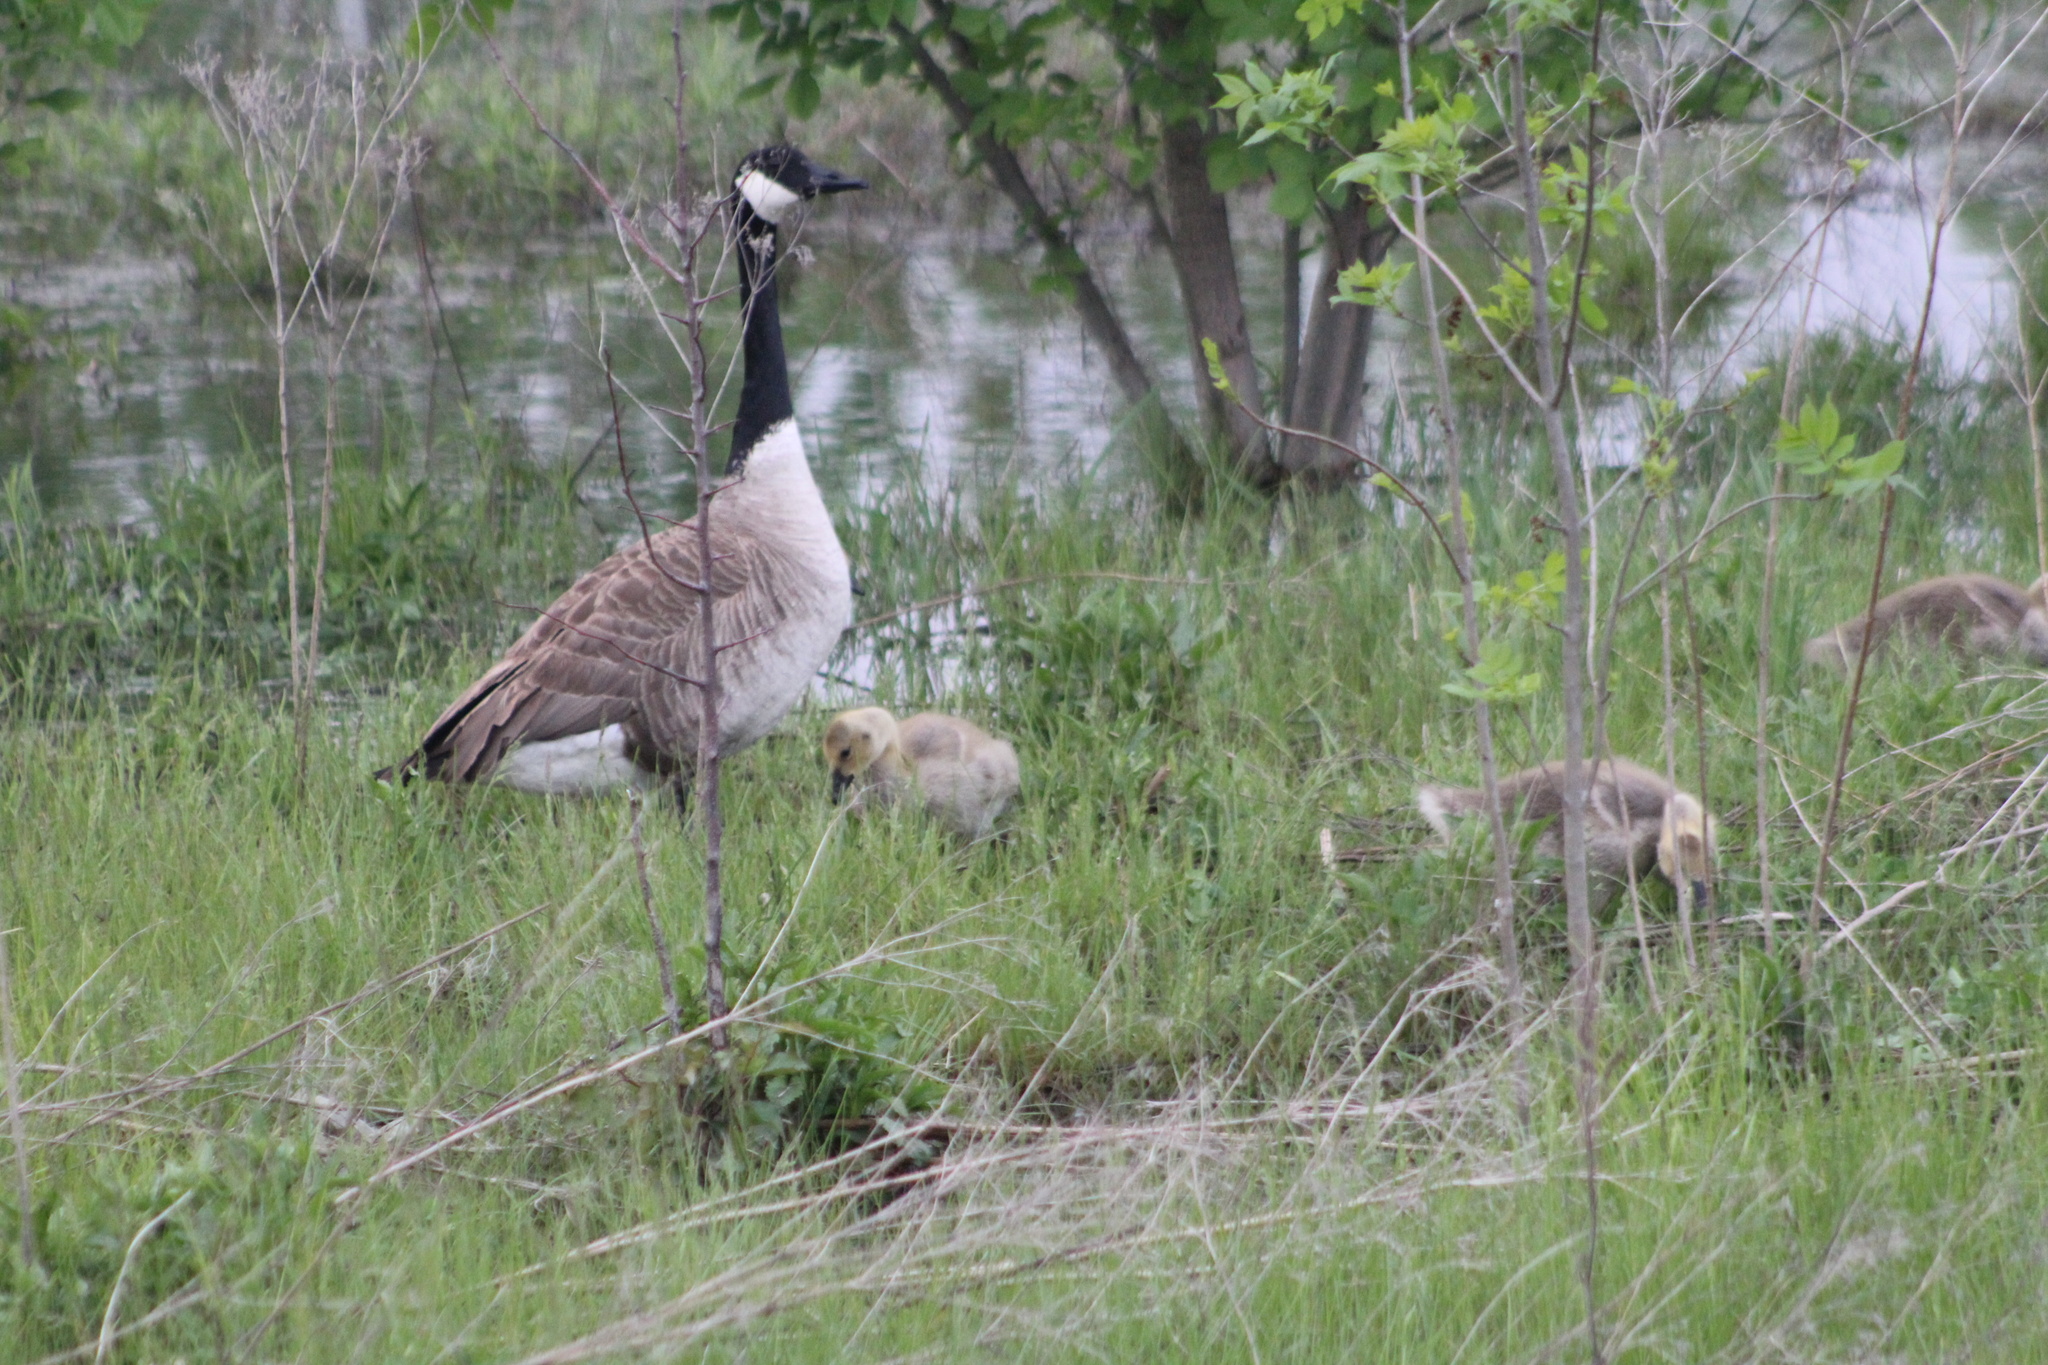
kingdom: Animalia
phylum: Chordata
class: Aves
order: Anseriformes
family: Anatidae
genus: Branta
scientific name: Branta canadensis
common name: Canada goose
